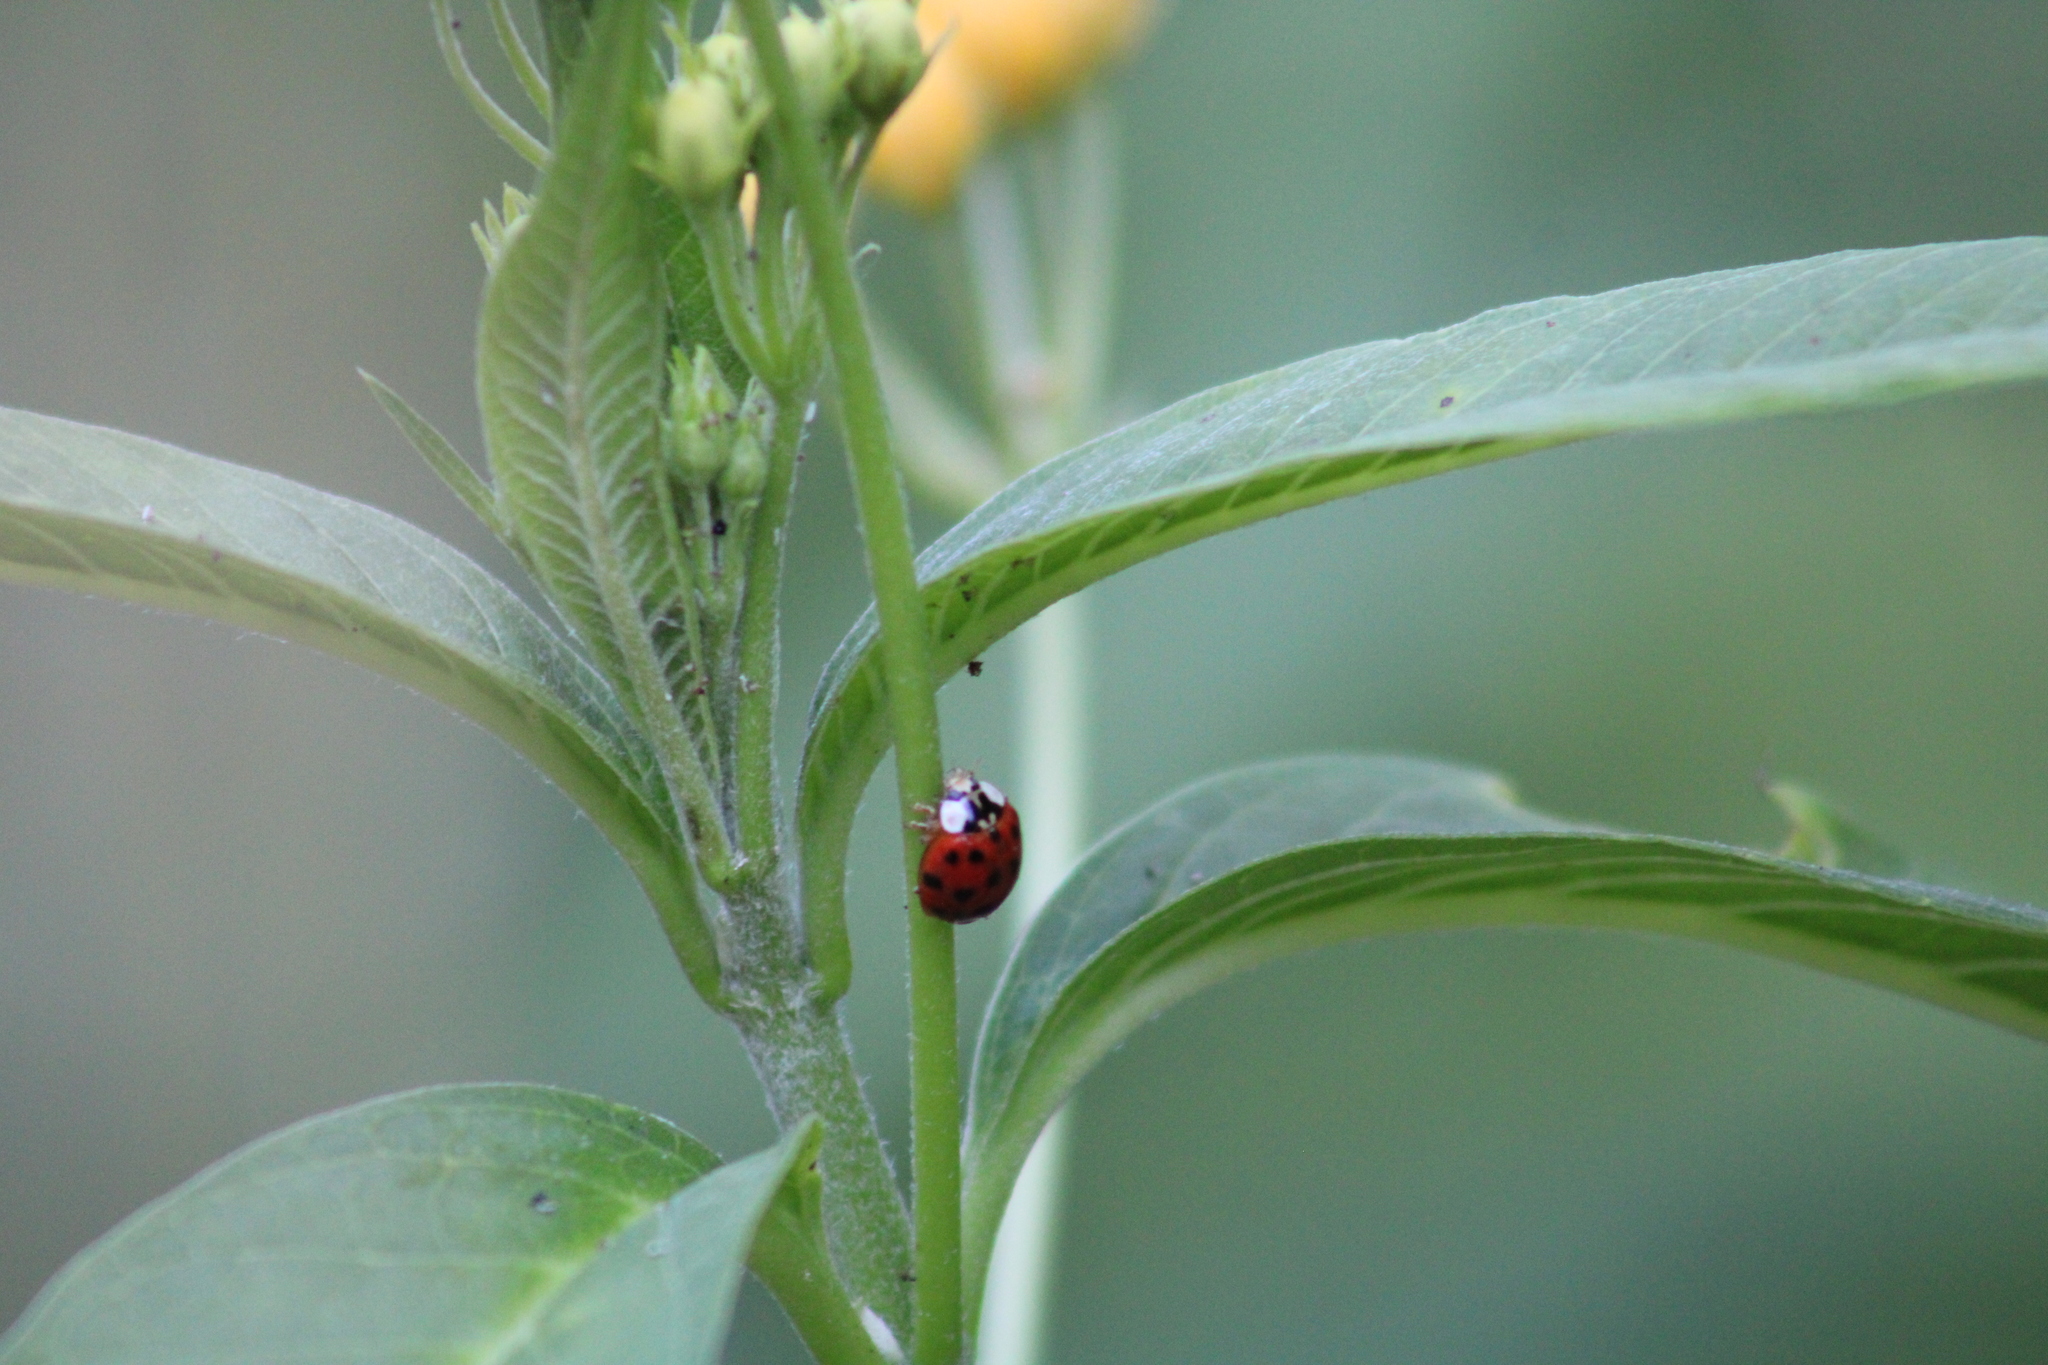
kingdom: Animalia
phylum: Arthropoda
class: Insecta
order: Coleoptera
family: Coccinellidae
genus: Harmonia
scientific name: Harmonia axyridis
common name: Harlequin ladybird
